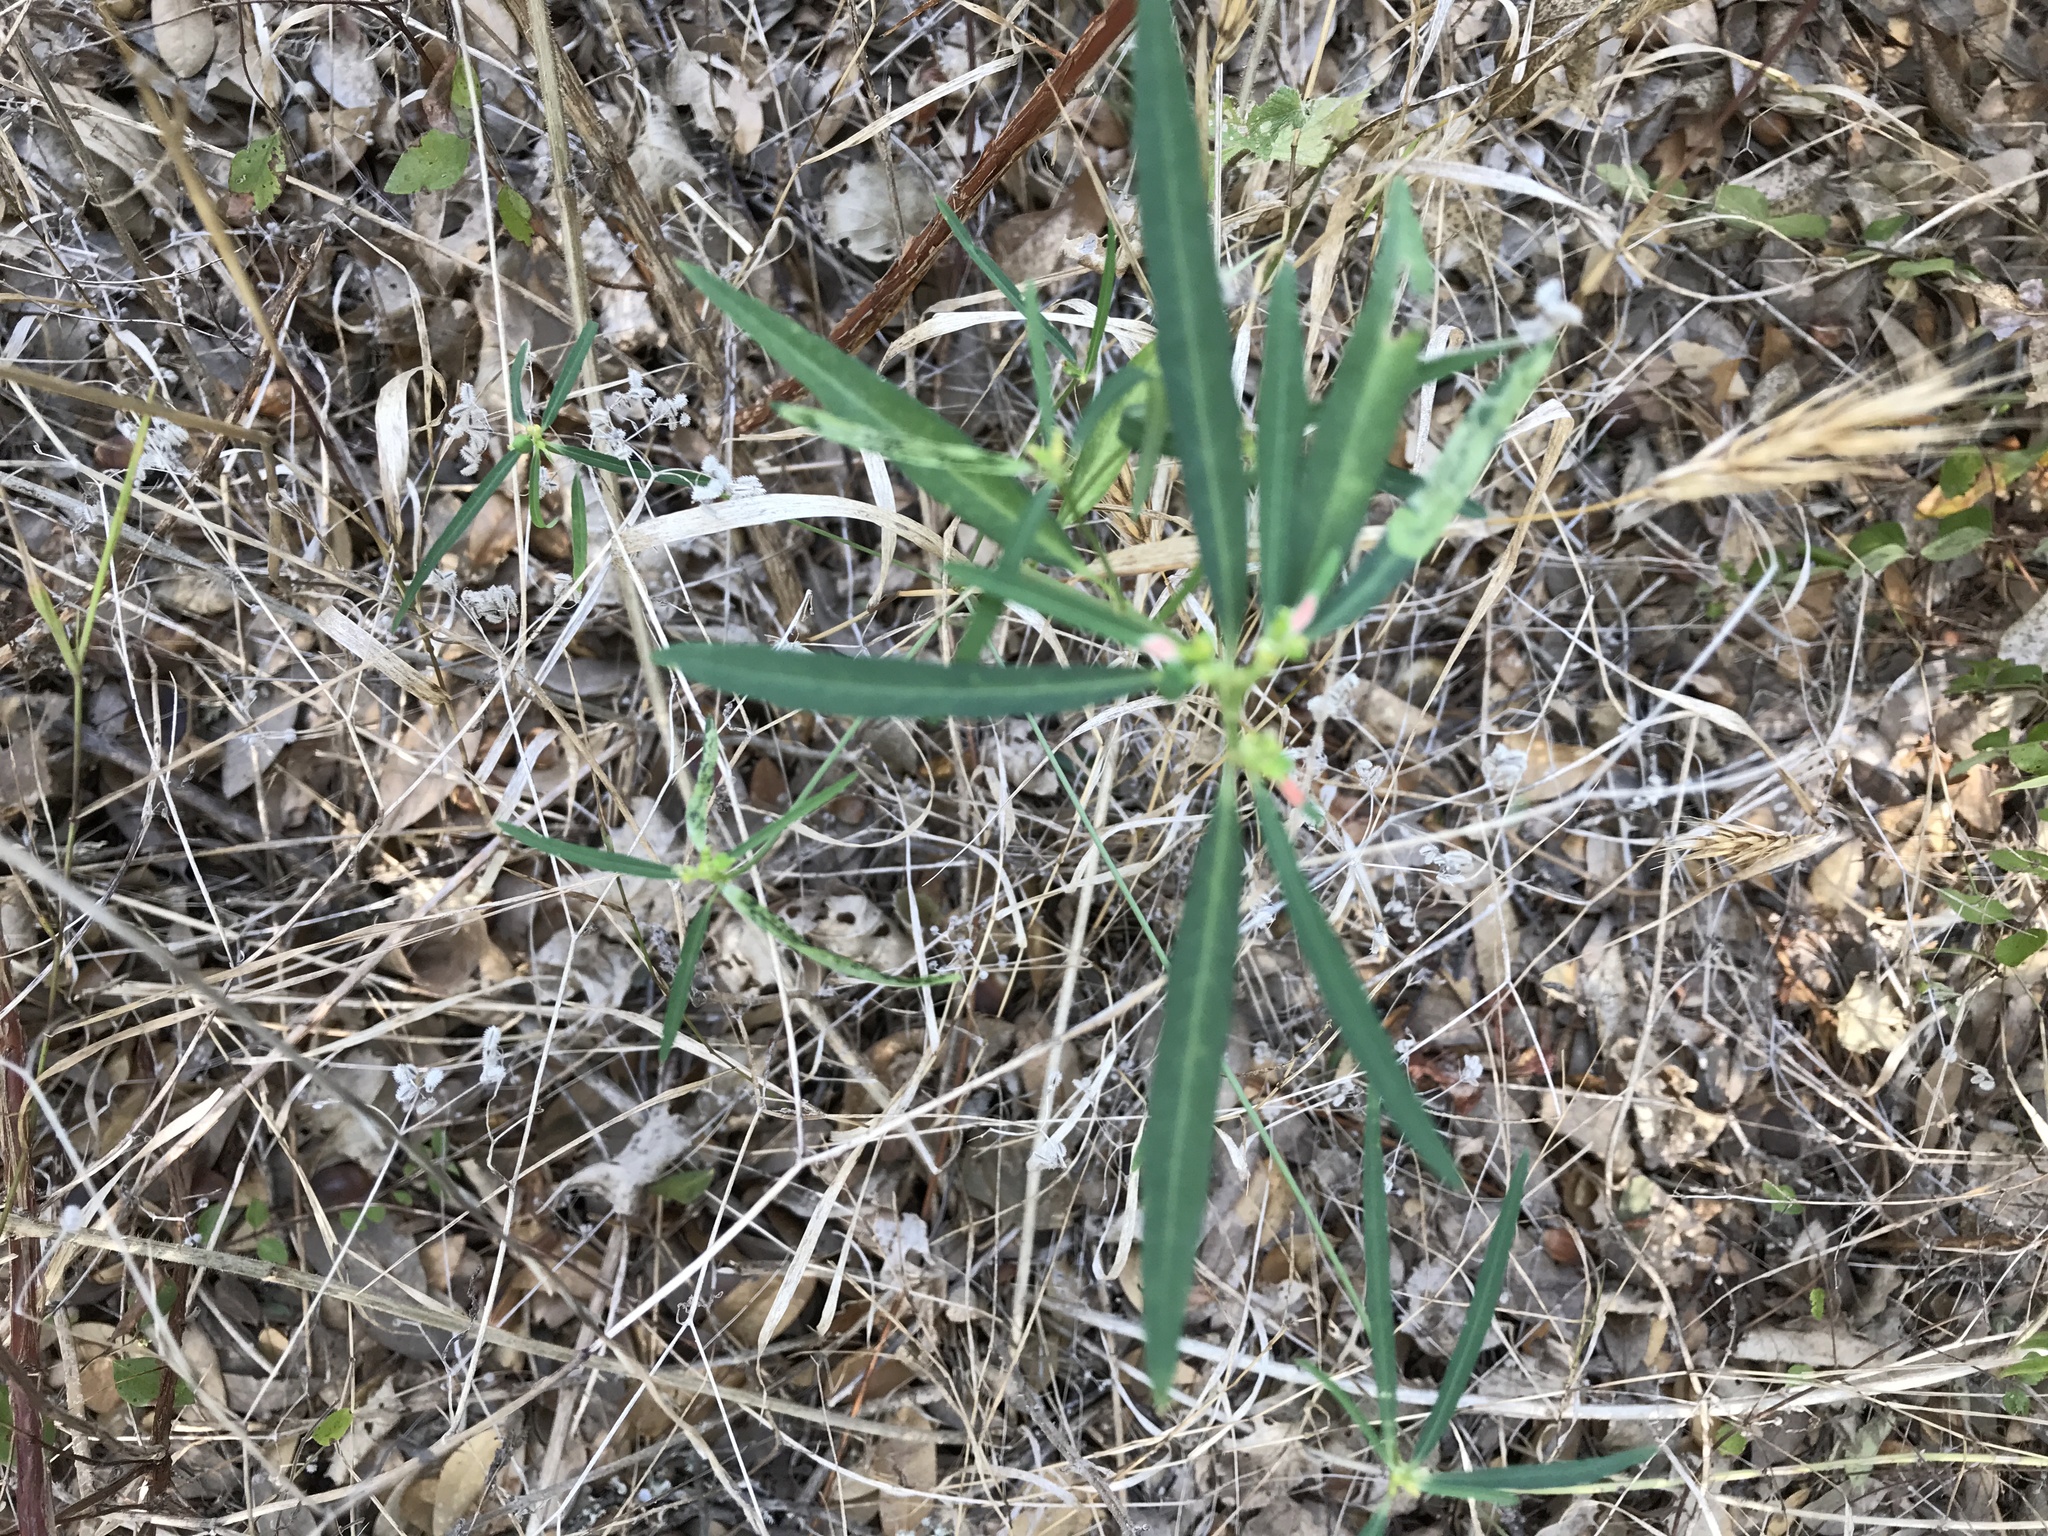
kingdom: Plantae
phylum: Tracheophyta
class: Magnoliopsida
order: Malpighiales
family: Euphorbiaceae
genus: Euphorbia
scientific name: Euphorbia heterophylla
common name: Mexican fireplant
